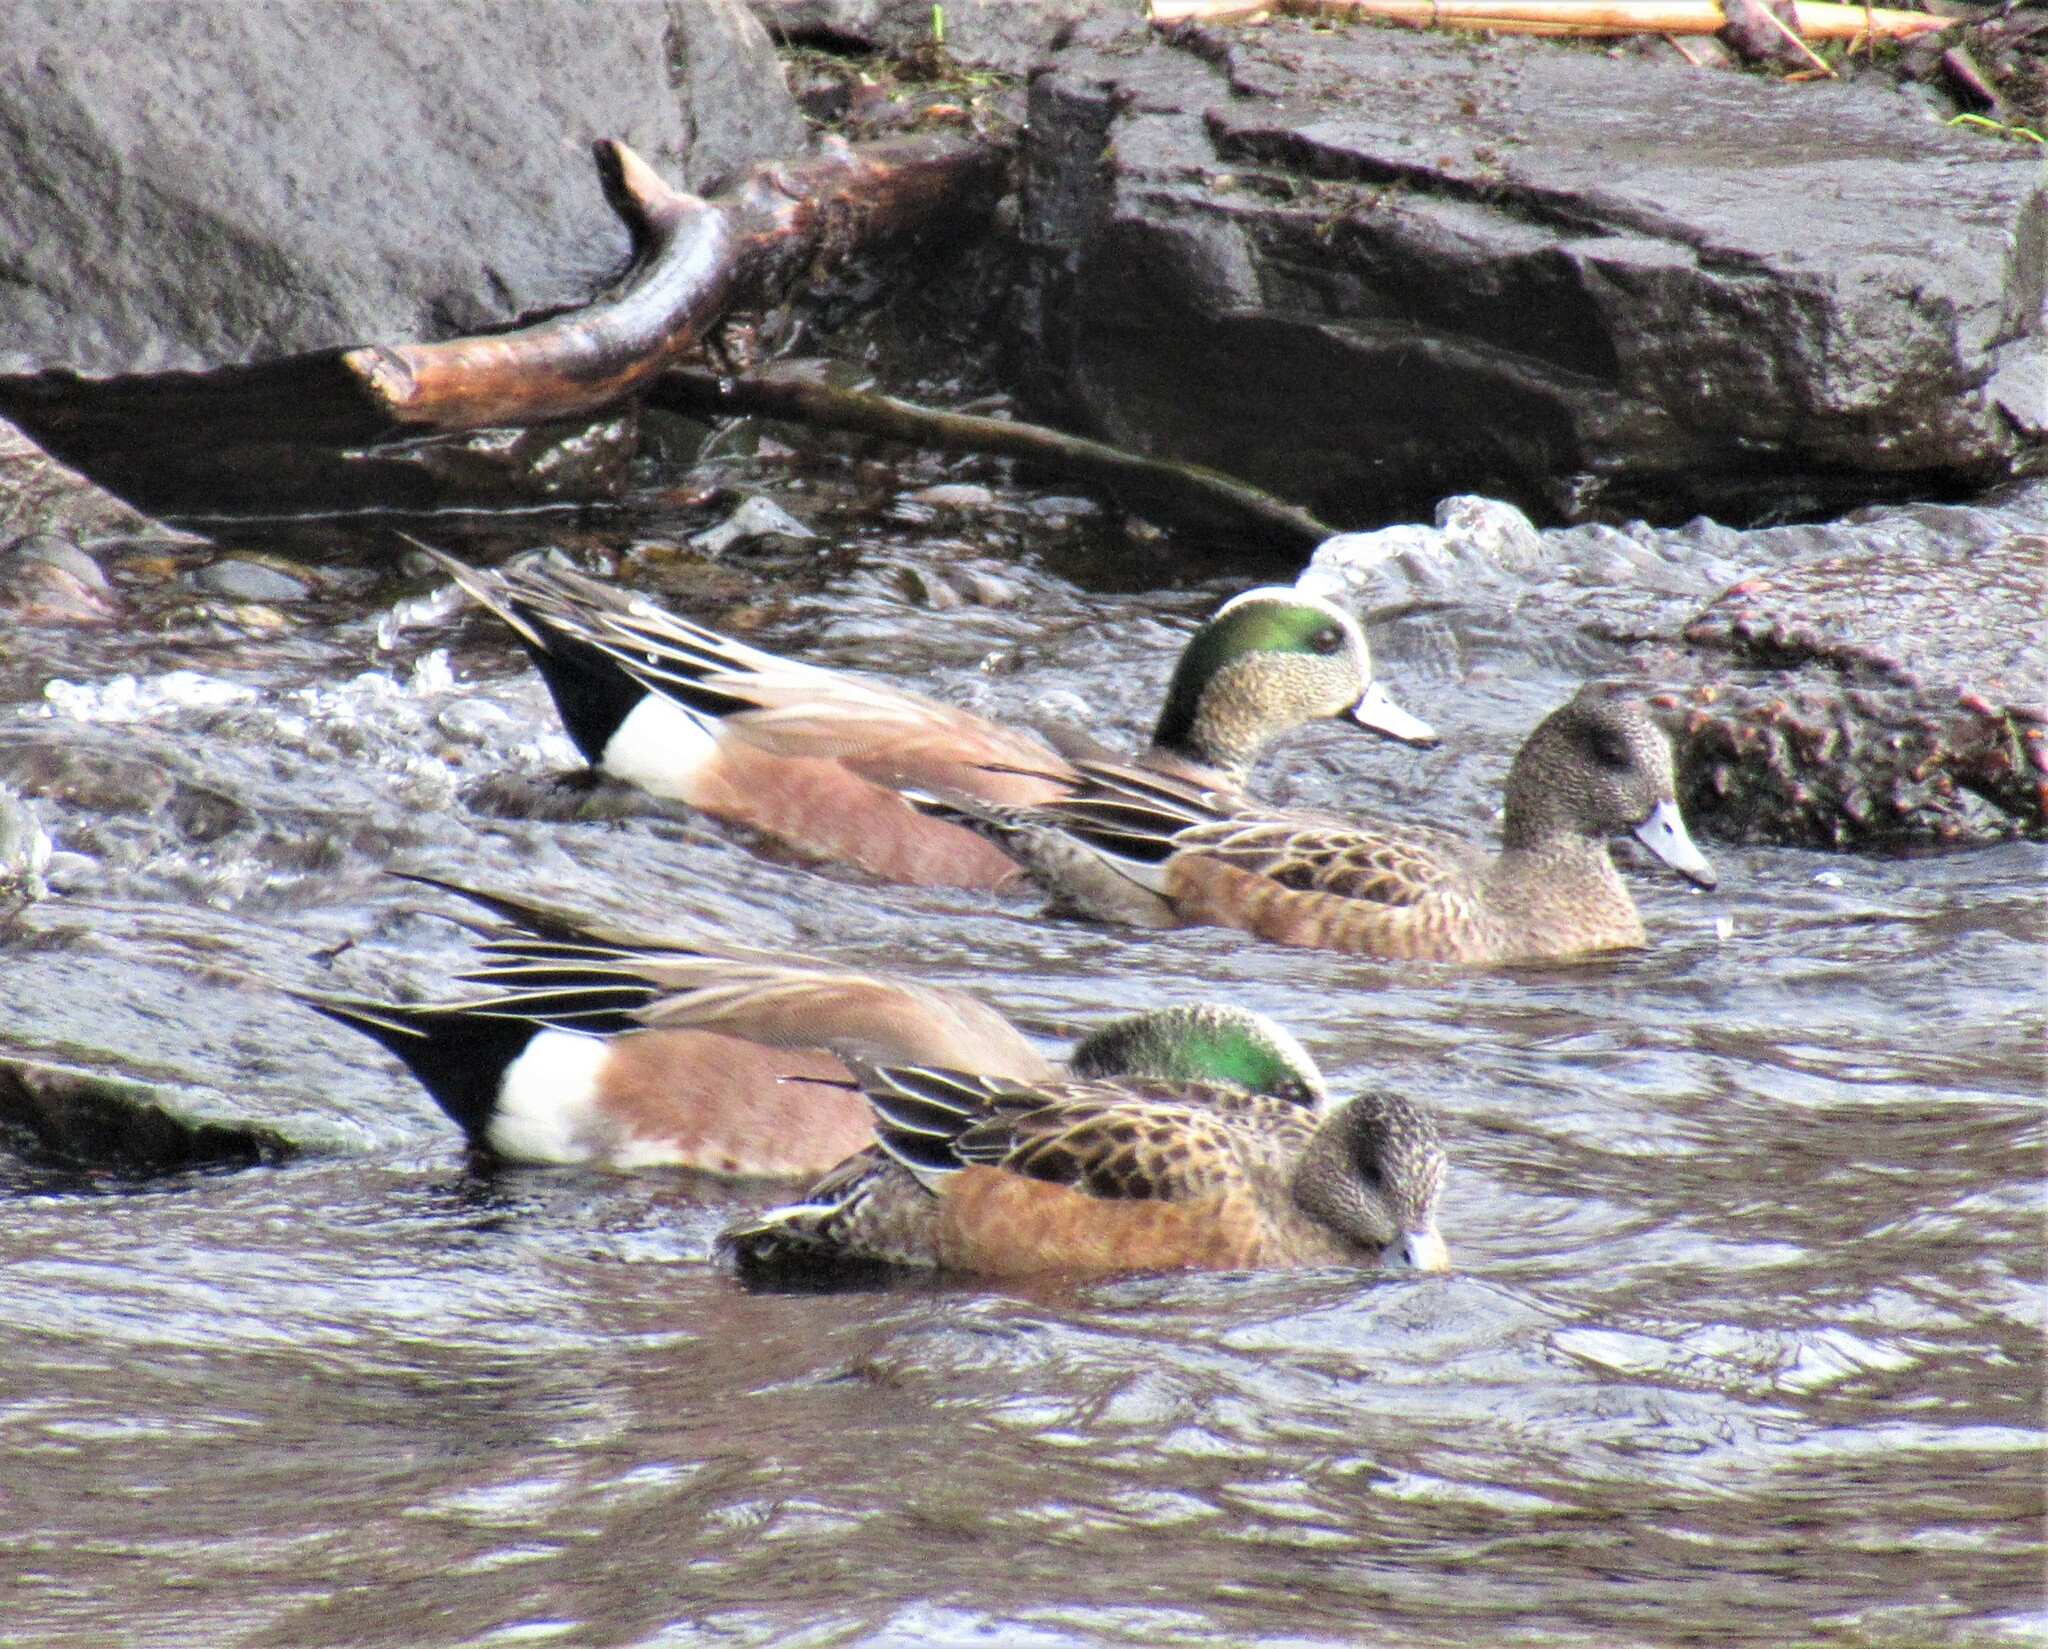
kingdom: Animalia
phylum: Chordata
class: Aves
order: Anseriformes
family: Anatidae
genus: Mareca
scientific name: Mareca americana
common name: American wigeon
